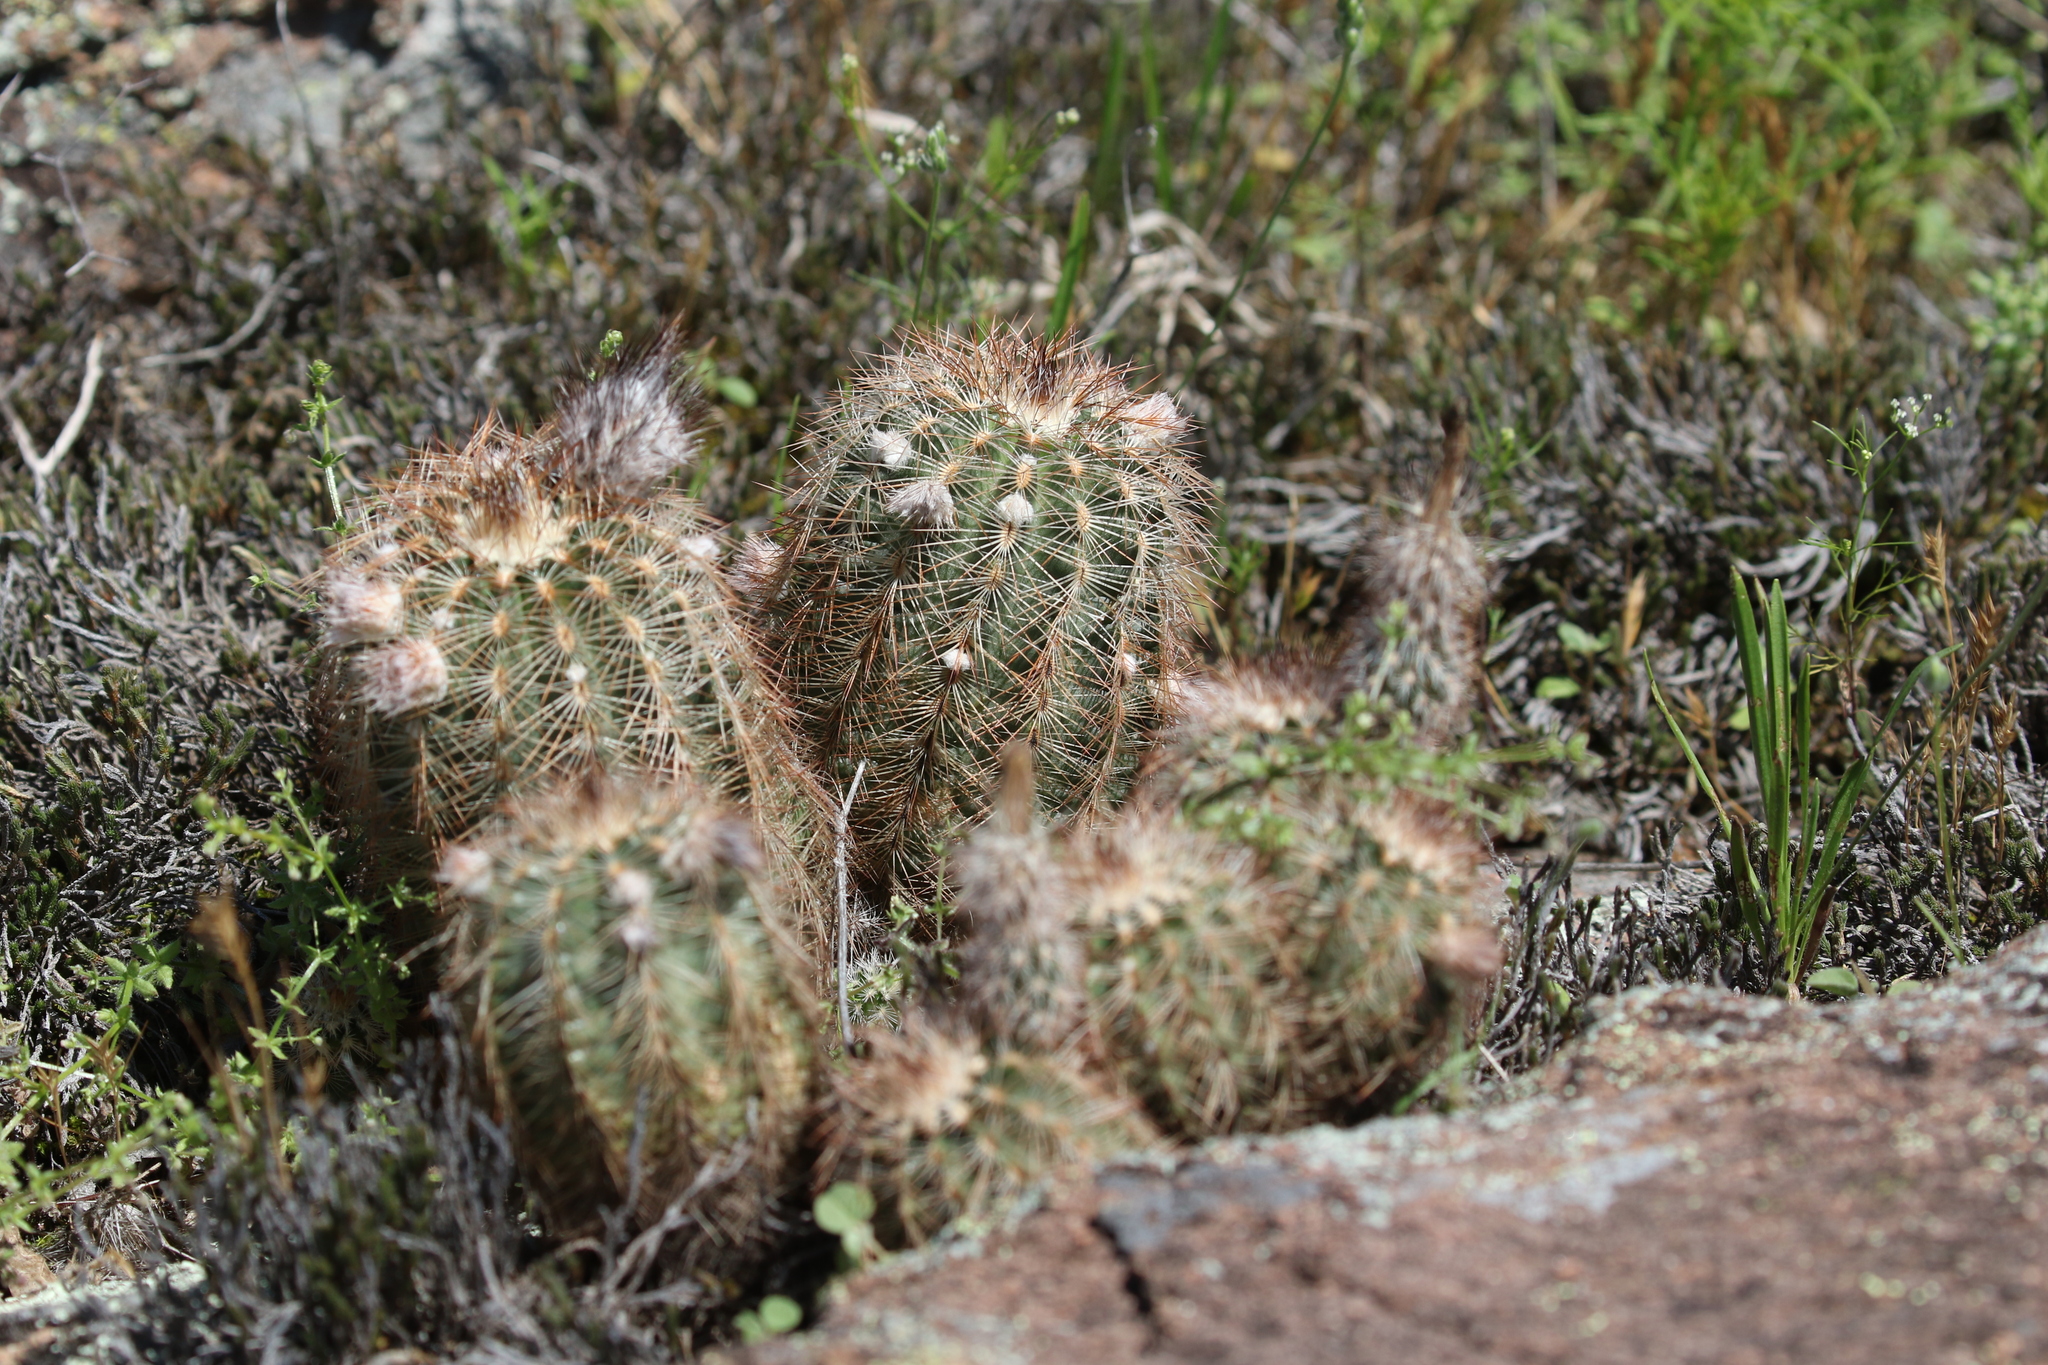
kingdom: Plantae
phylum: Tracheophyta
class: Magnoliopsida
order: Caryophyllales
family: Cactaceae
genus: Echinocereus
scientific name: Echinocereus reichenbachii
